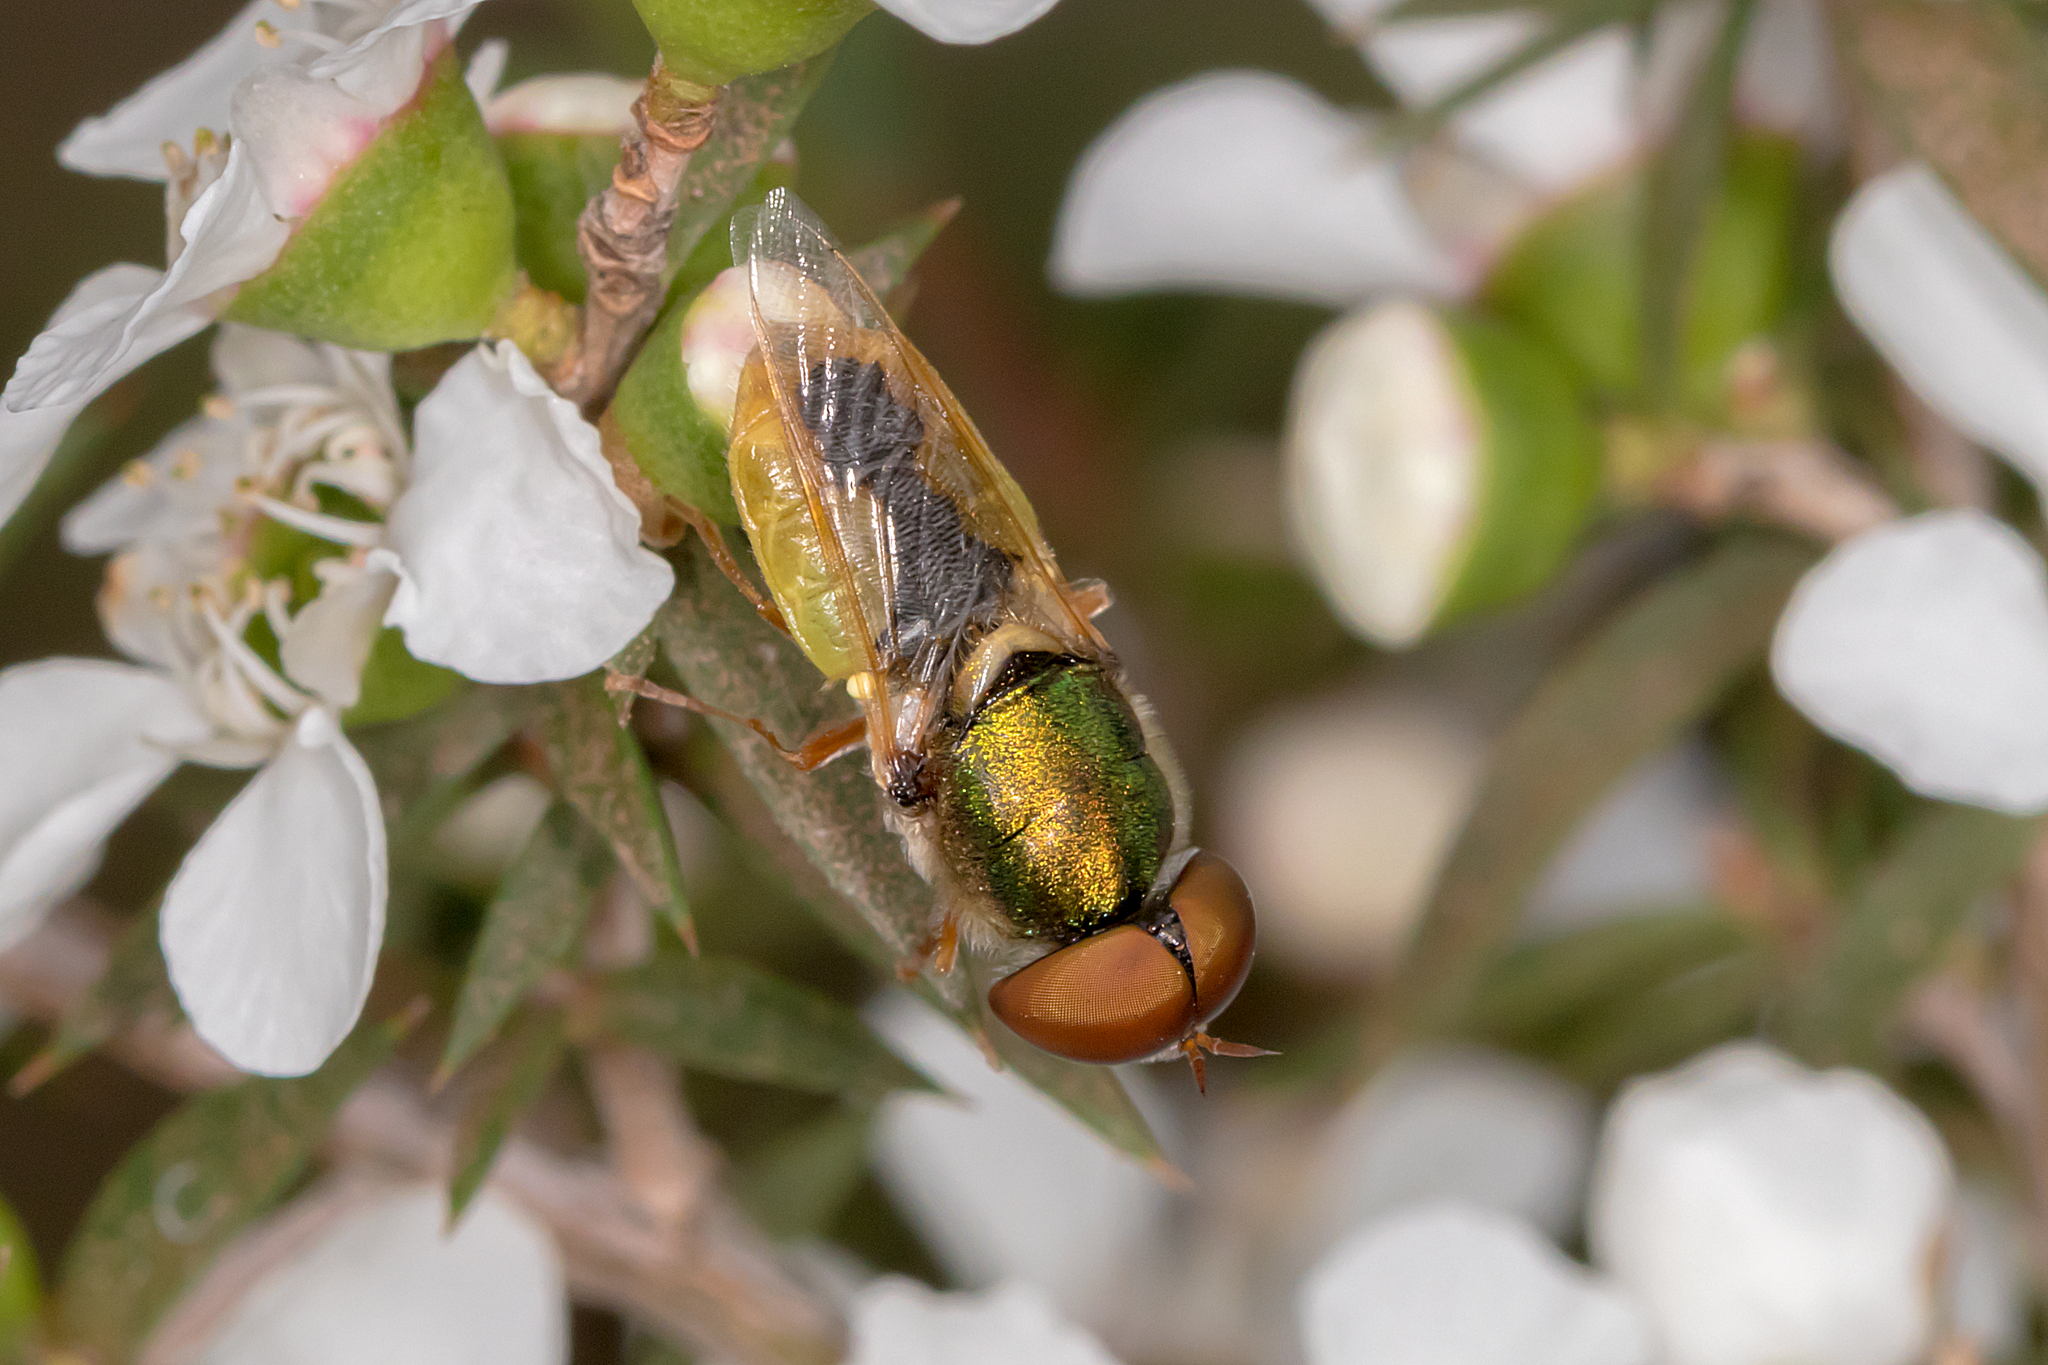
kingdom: Animalia
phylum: Arthropoda
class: Insecta
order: Diptera
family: Stratiomyidae
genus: Odontomyia
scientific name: Odontomyia decipiens
